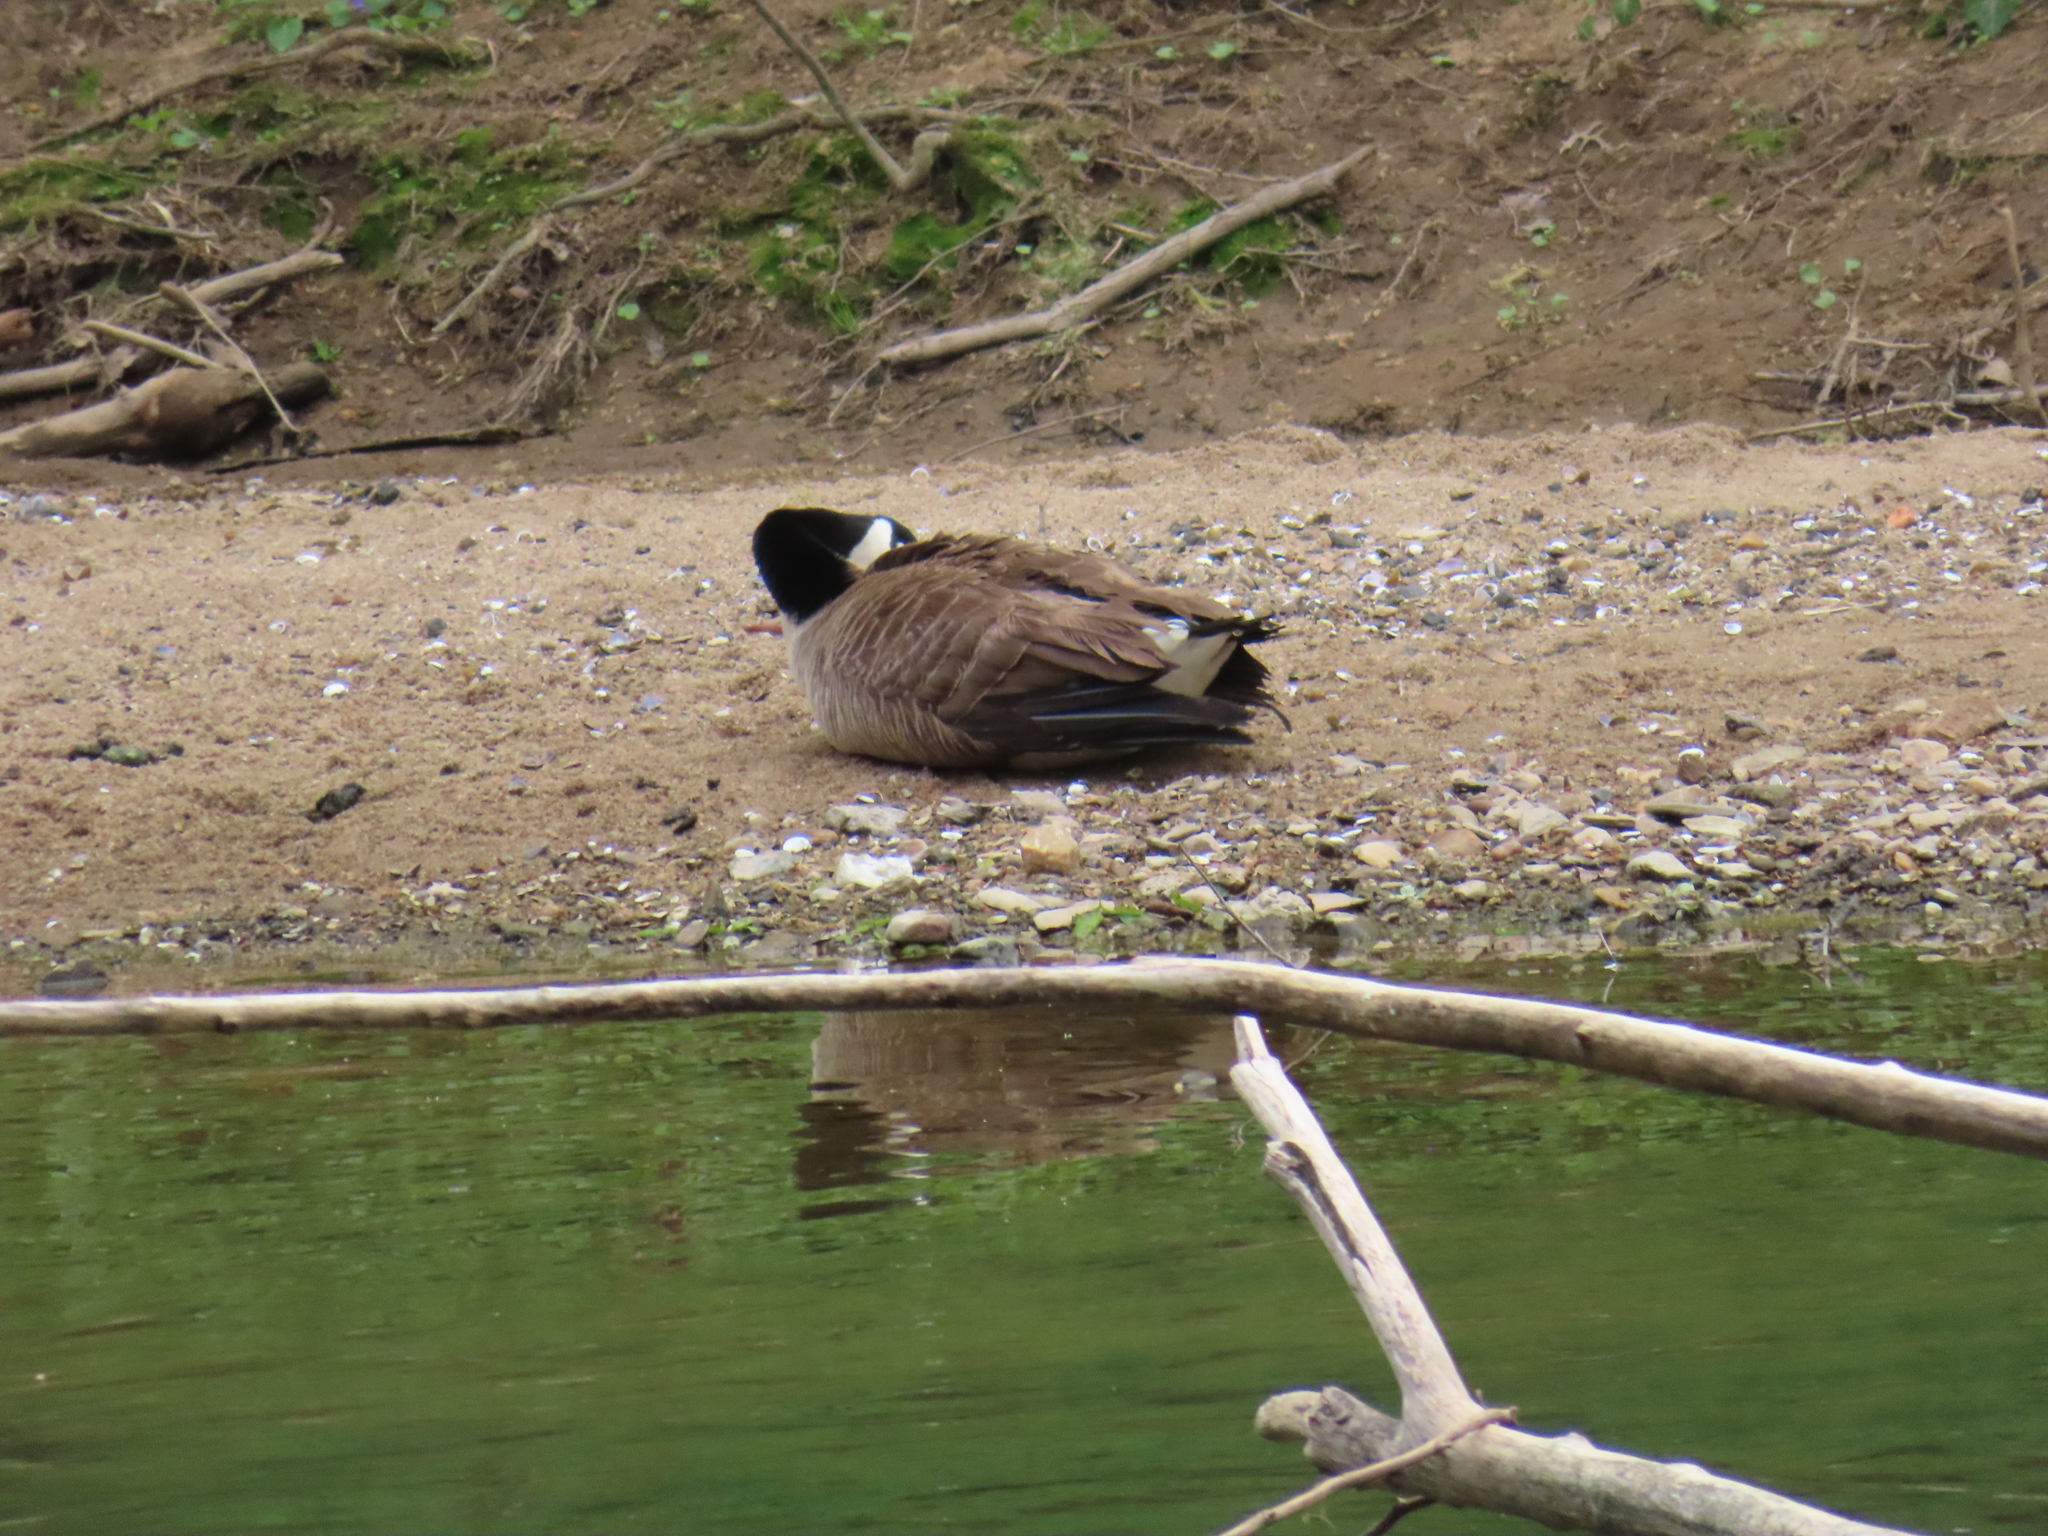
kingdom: Animalia
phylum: Chordata
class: Aves
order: Anseriformes
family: Anatidae
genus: Branta
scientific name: Branta canadensis
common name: Canada goose
